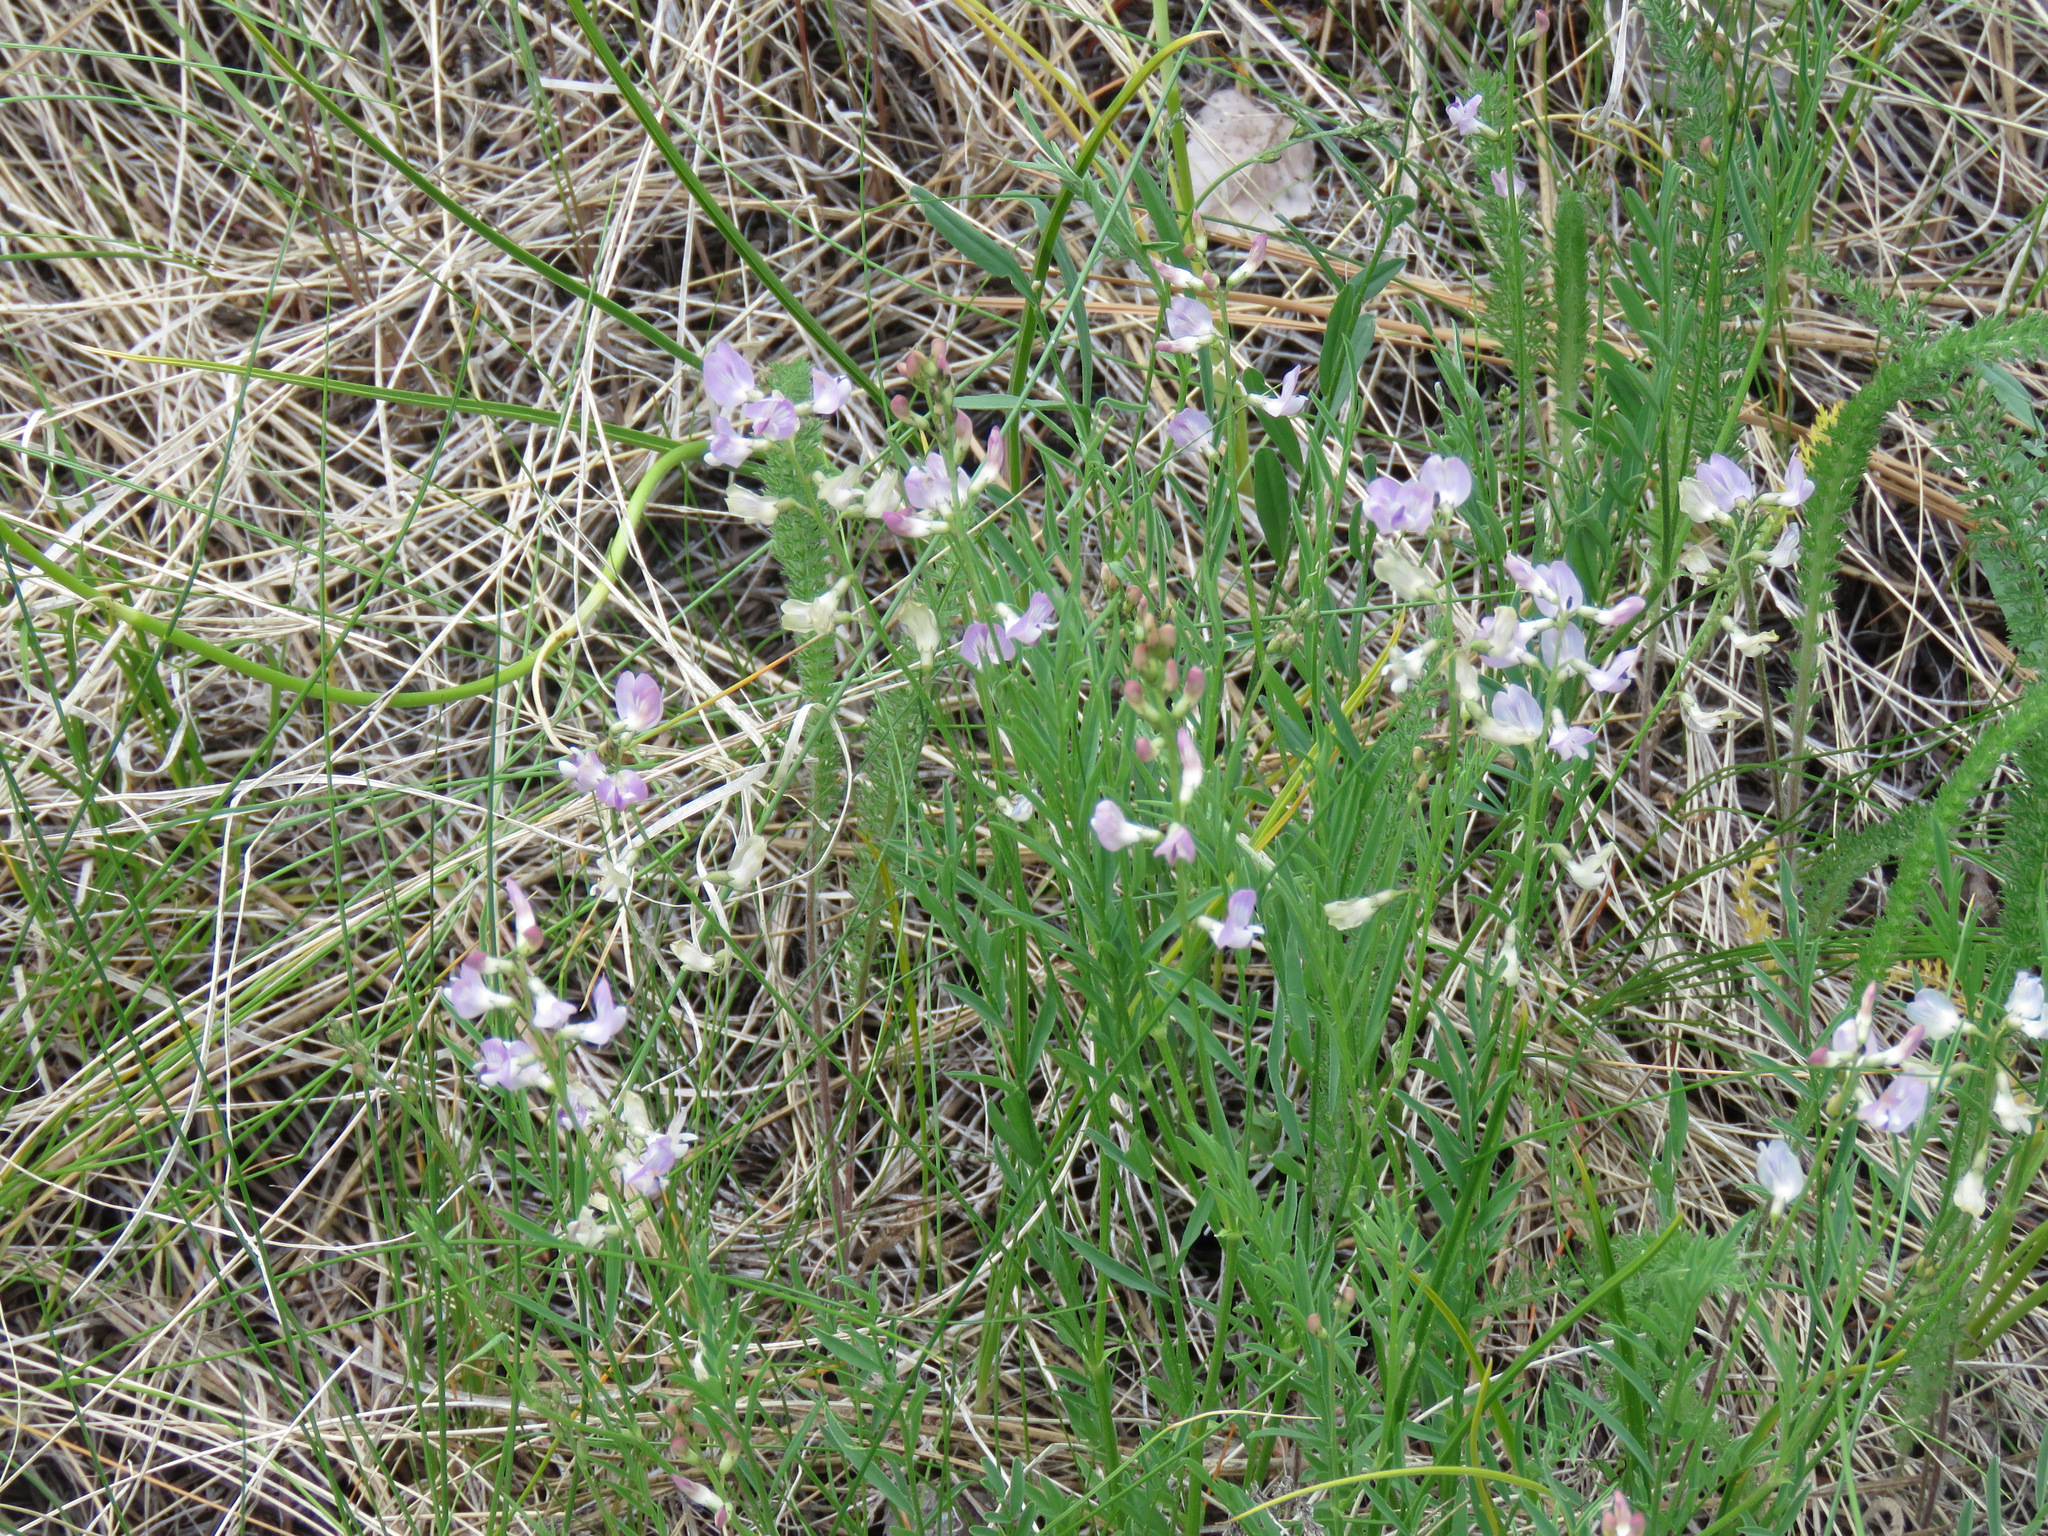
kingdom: Plantae
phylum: Tracheophyta
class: Magnoliopsida
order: Fabales
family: Fabaceae
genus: Astragalus
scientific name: Astragalus miser
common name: Timber milkvetch
